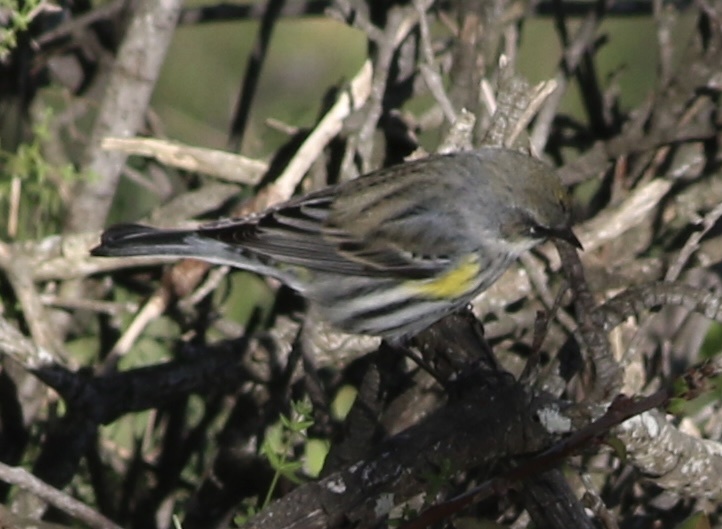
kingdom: Animalia
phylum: Chordata
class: Aves
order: Passeriformes
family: Parulidae
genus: Setophaga
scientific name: Setophaga coronata
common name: Myrtle warbler
